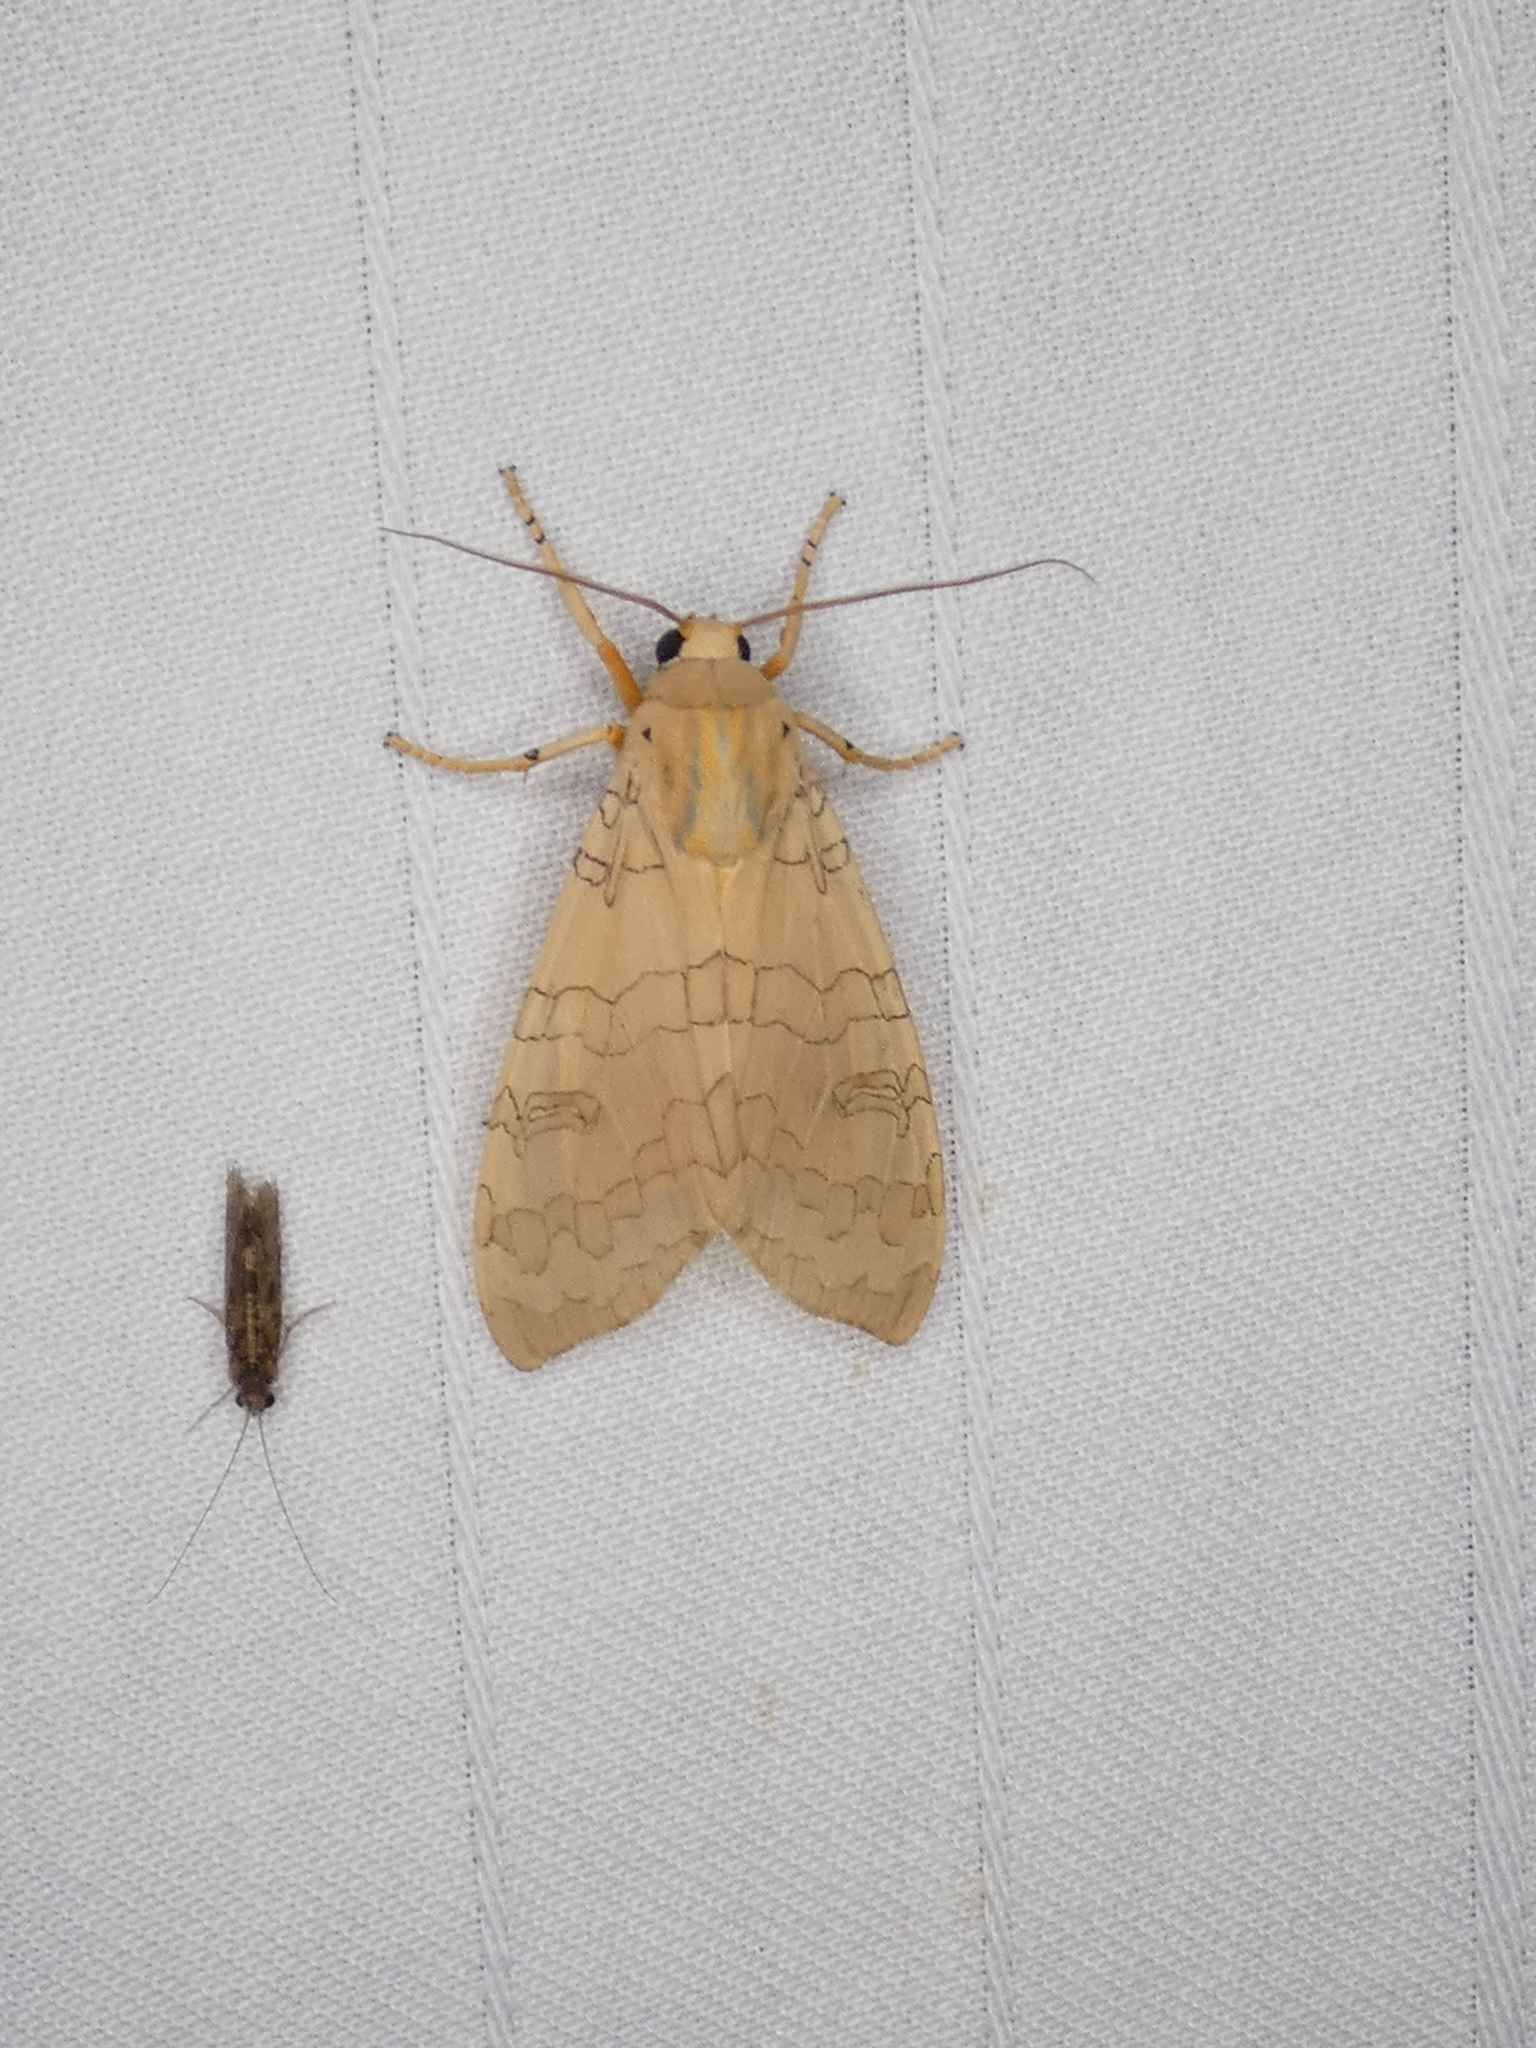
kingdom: Animalia
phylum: Arthropoda
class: Insecta
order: Lepidoptera
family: Erebidae
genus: Halysidota
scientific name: Halysidota
